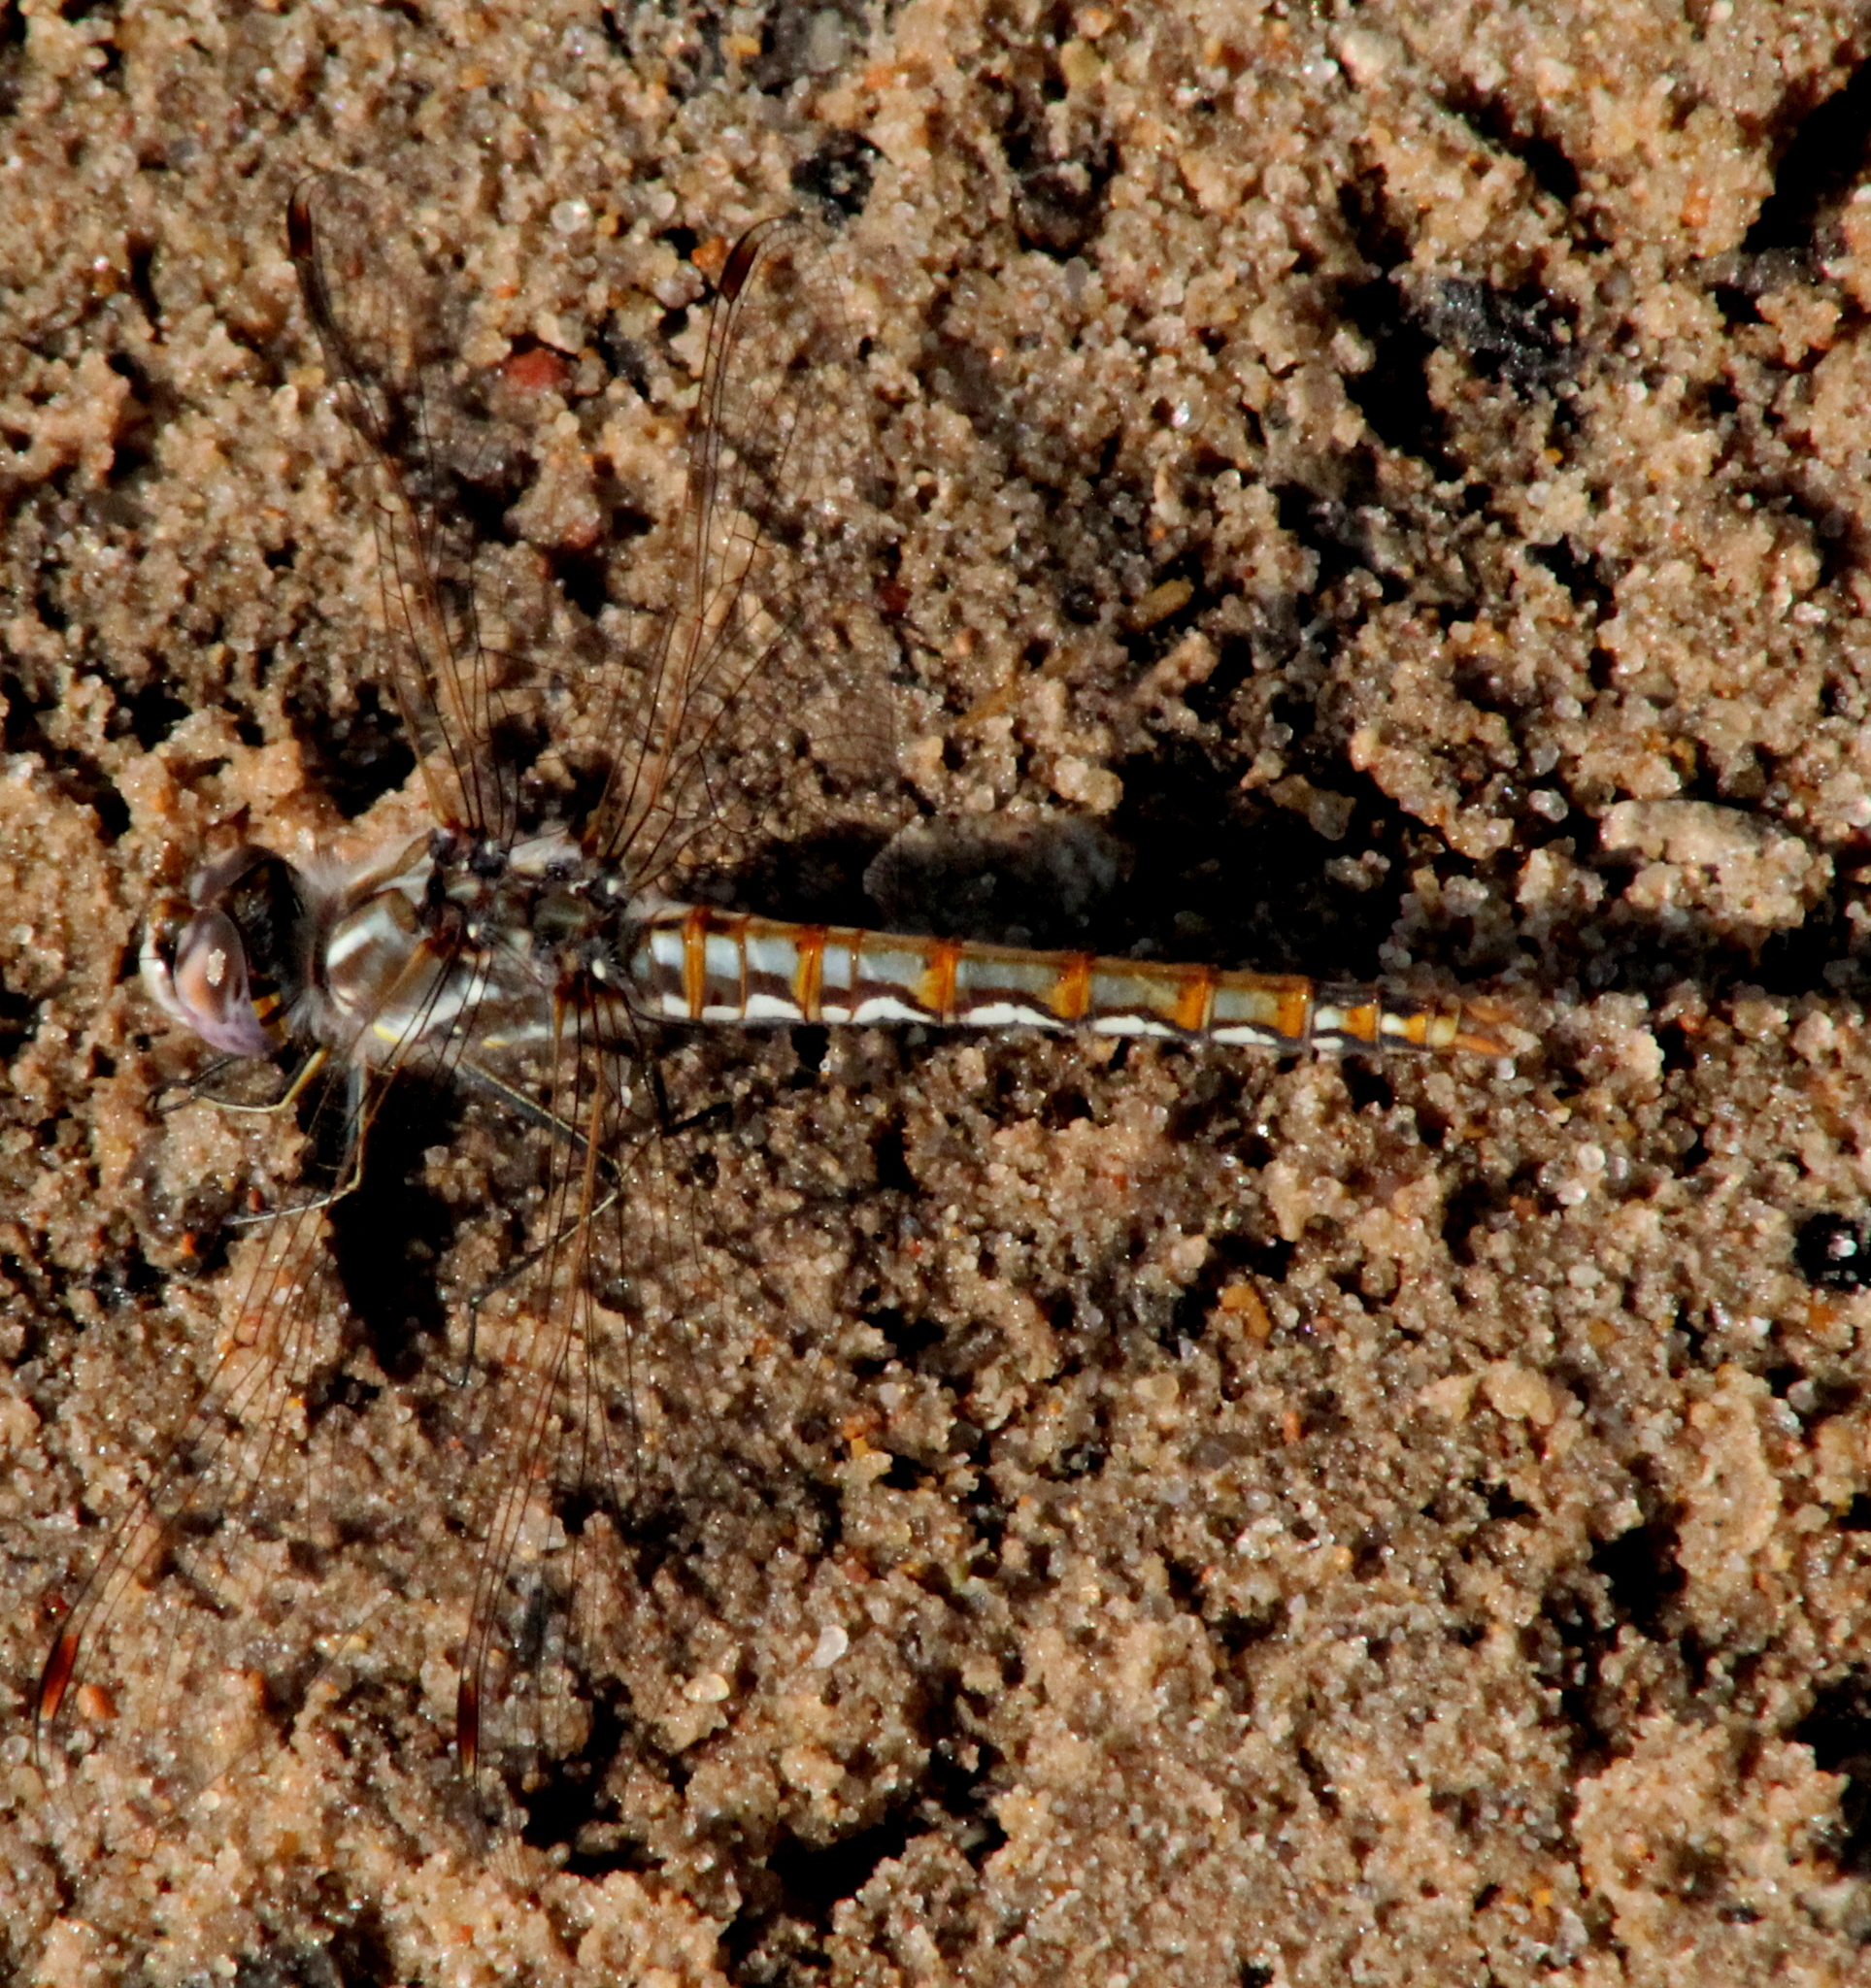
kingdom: Animalia
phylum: Arthropoda
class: Insecta
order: Odonata
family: Libellulidae
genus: Sympetrum
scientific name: Sympetrum corruptum
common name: Variegated meadowhawk
